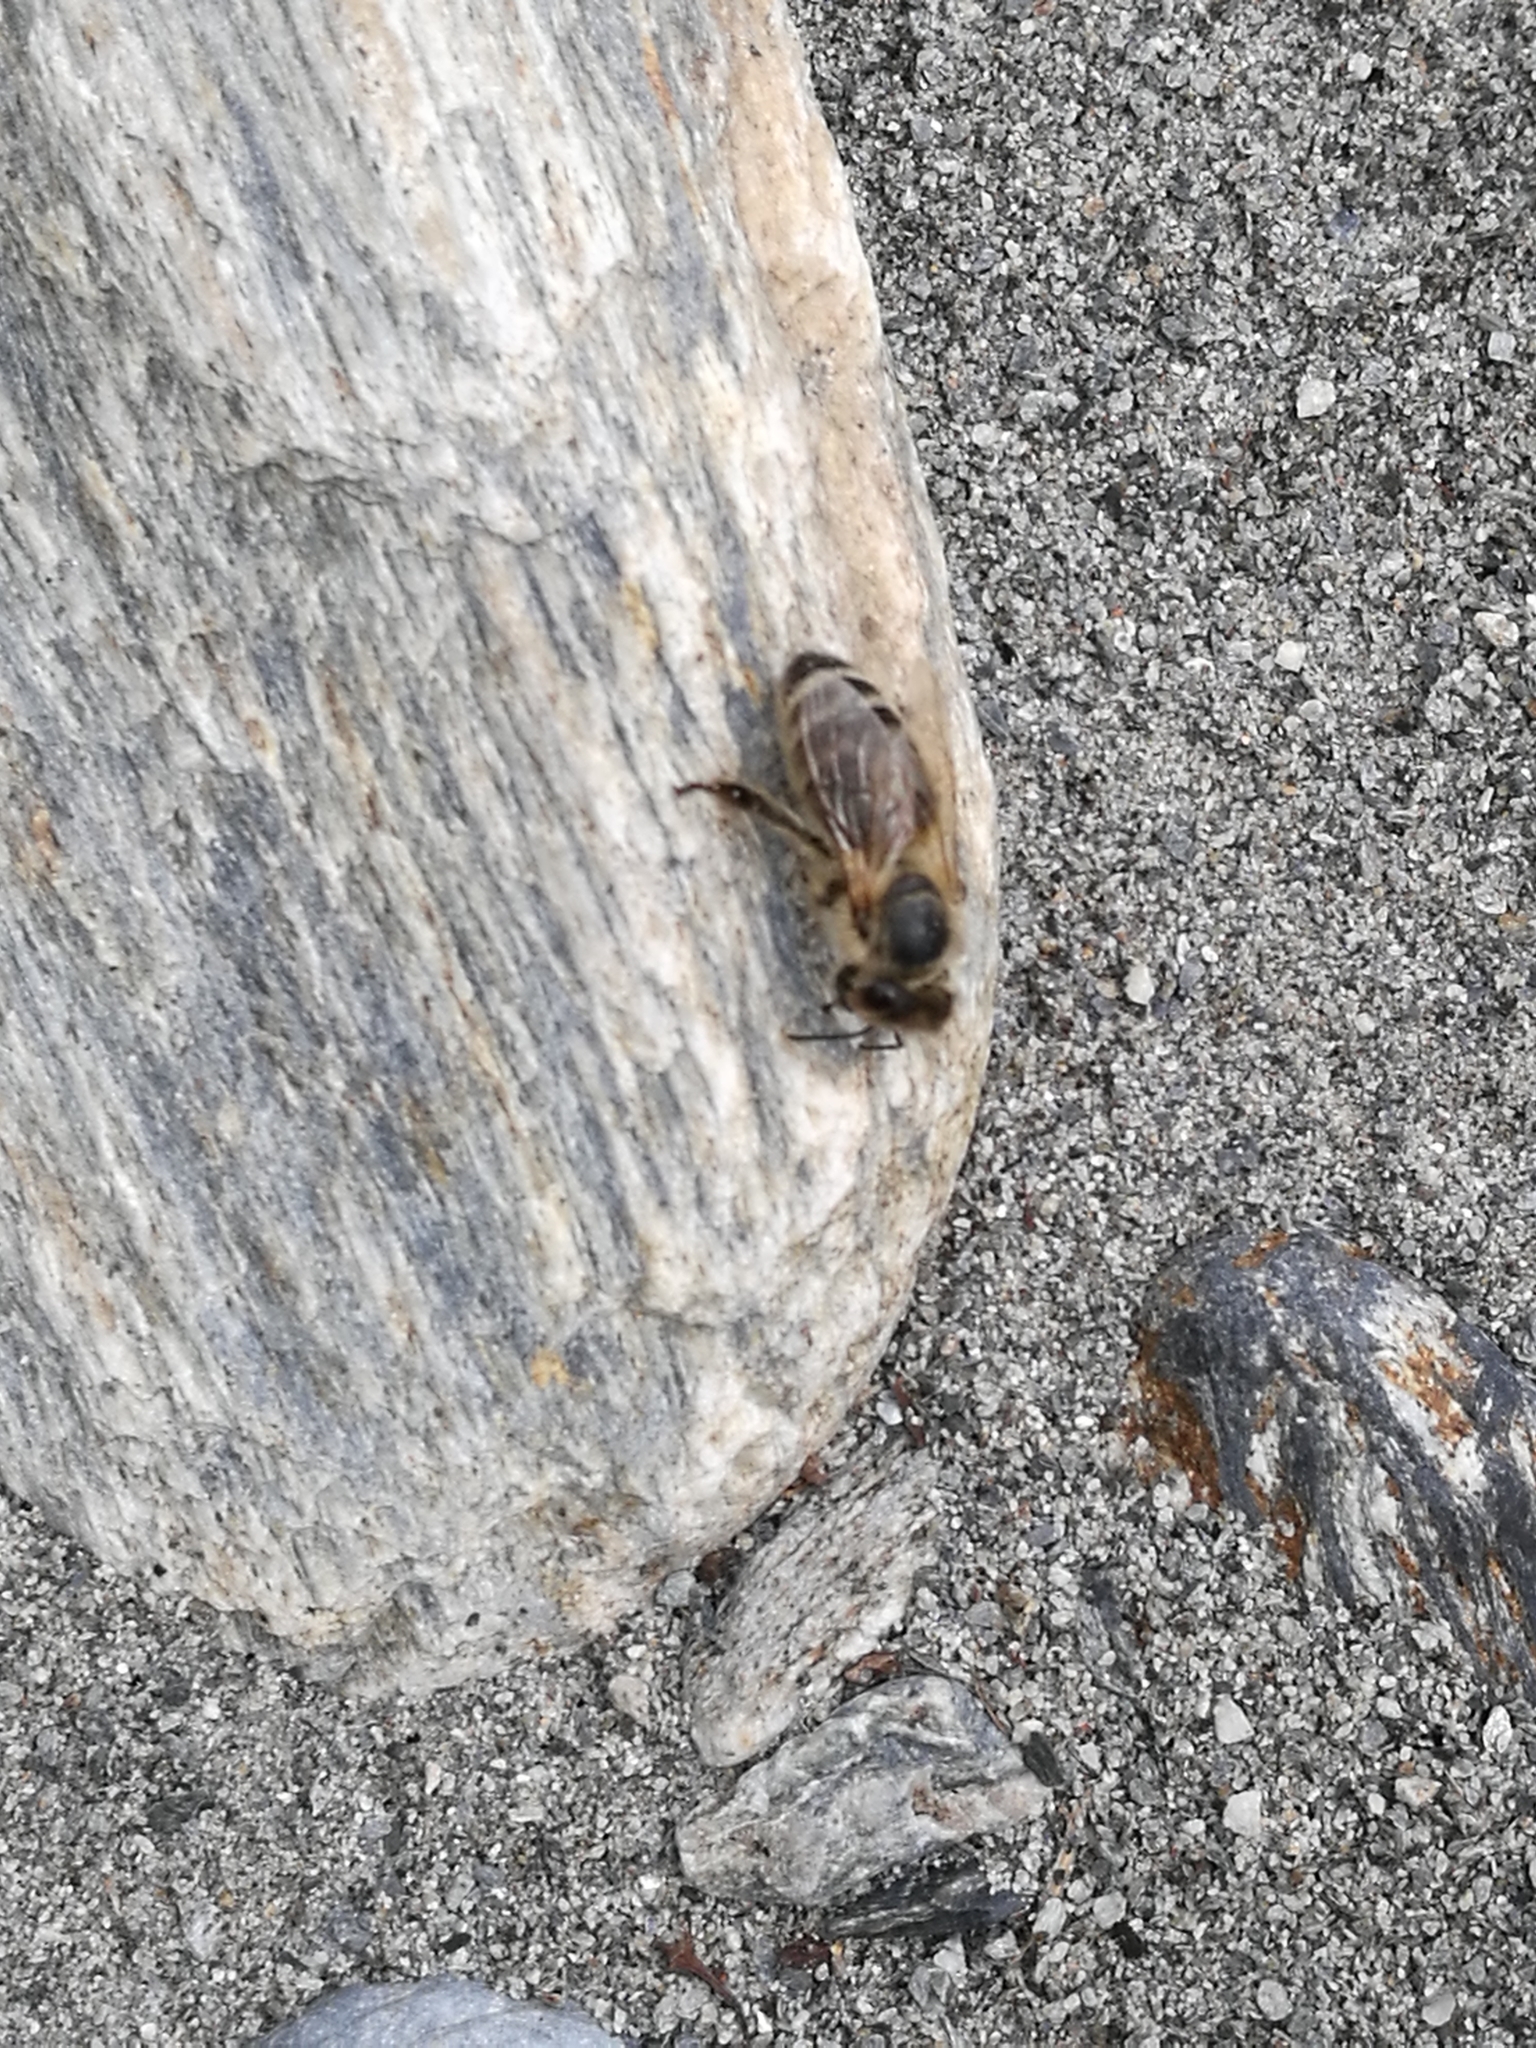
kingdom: Animalia
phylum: Arthropoda
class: Insecta
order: Hymenoptera
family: Apidae
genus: Apis
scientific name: Apis mellifera
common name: Honey bee
